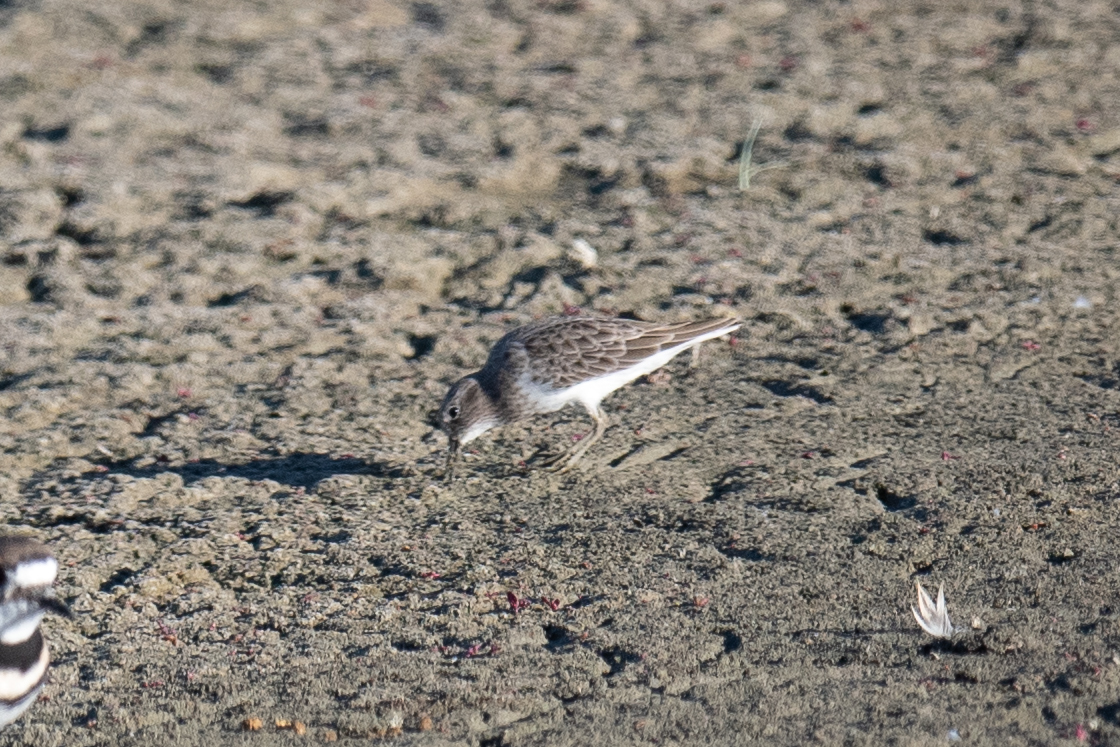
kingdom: Animalia
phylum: Chordata
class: Aves
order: Charadriiformes
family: Scolopacidae
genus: Calidris
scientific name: Calidris minutilla
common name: Least sandpiper
